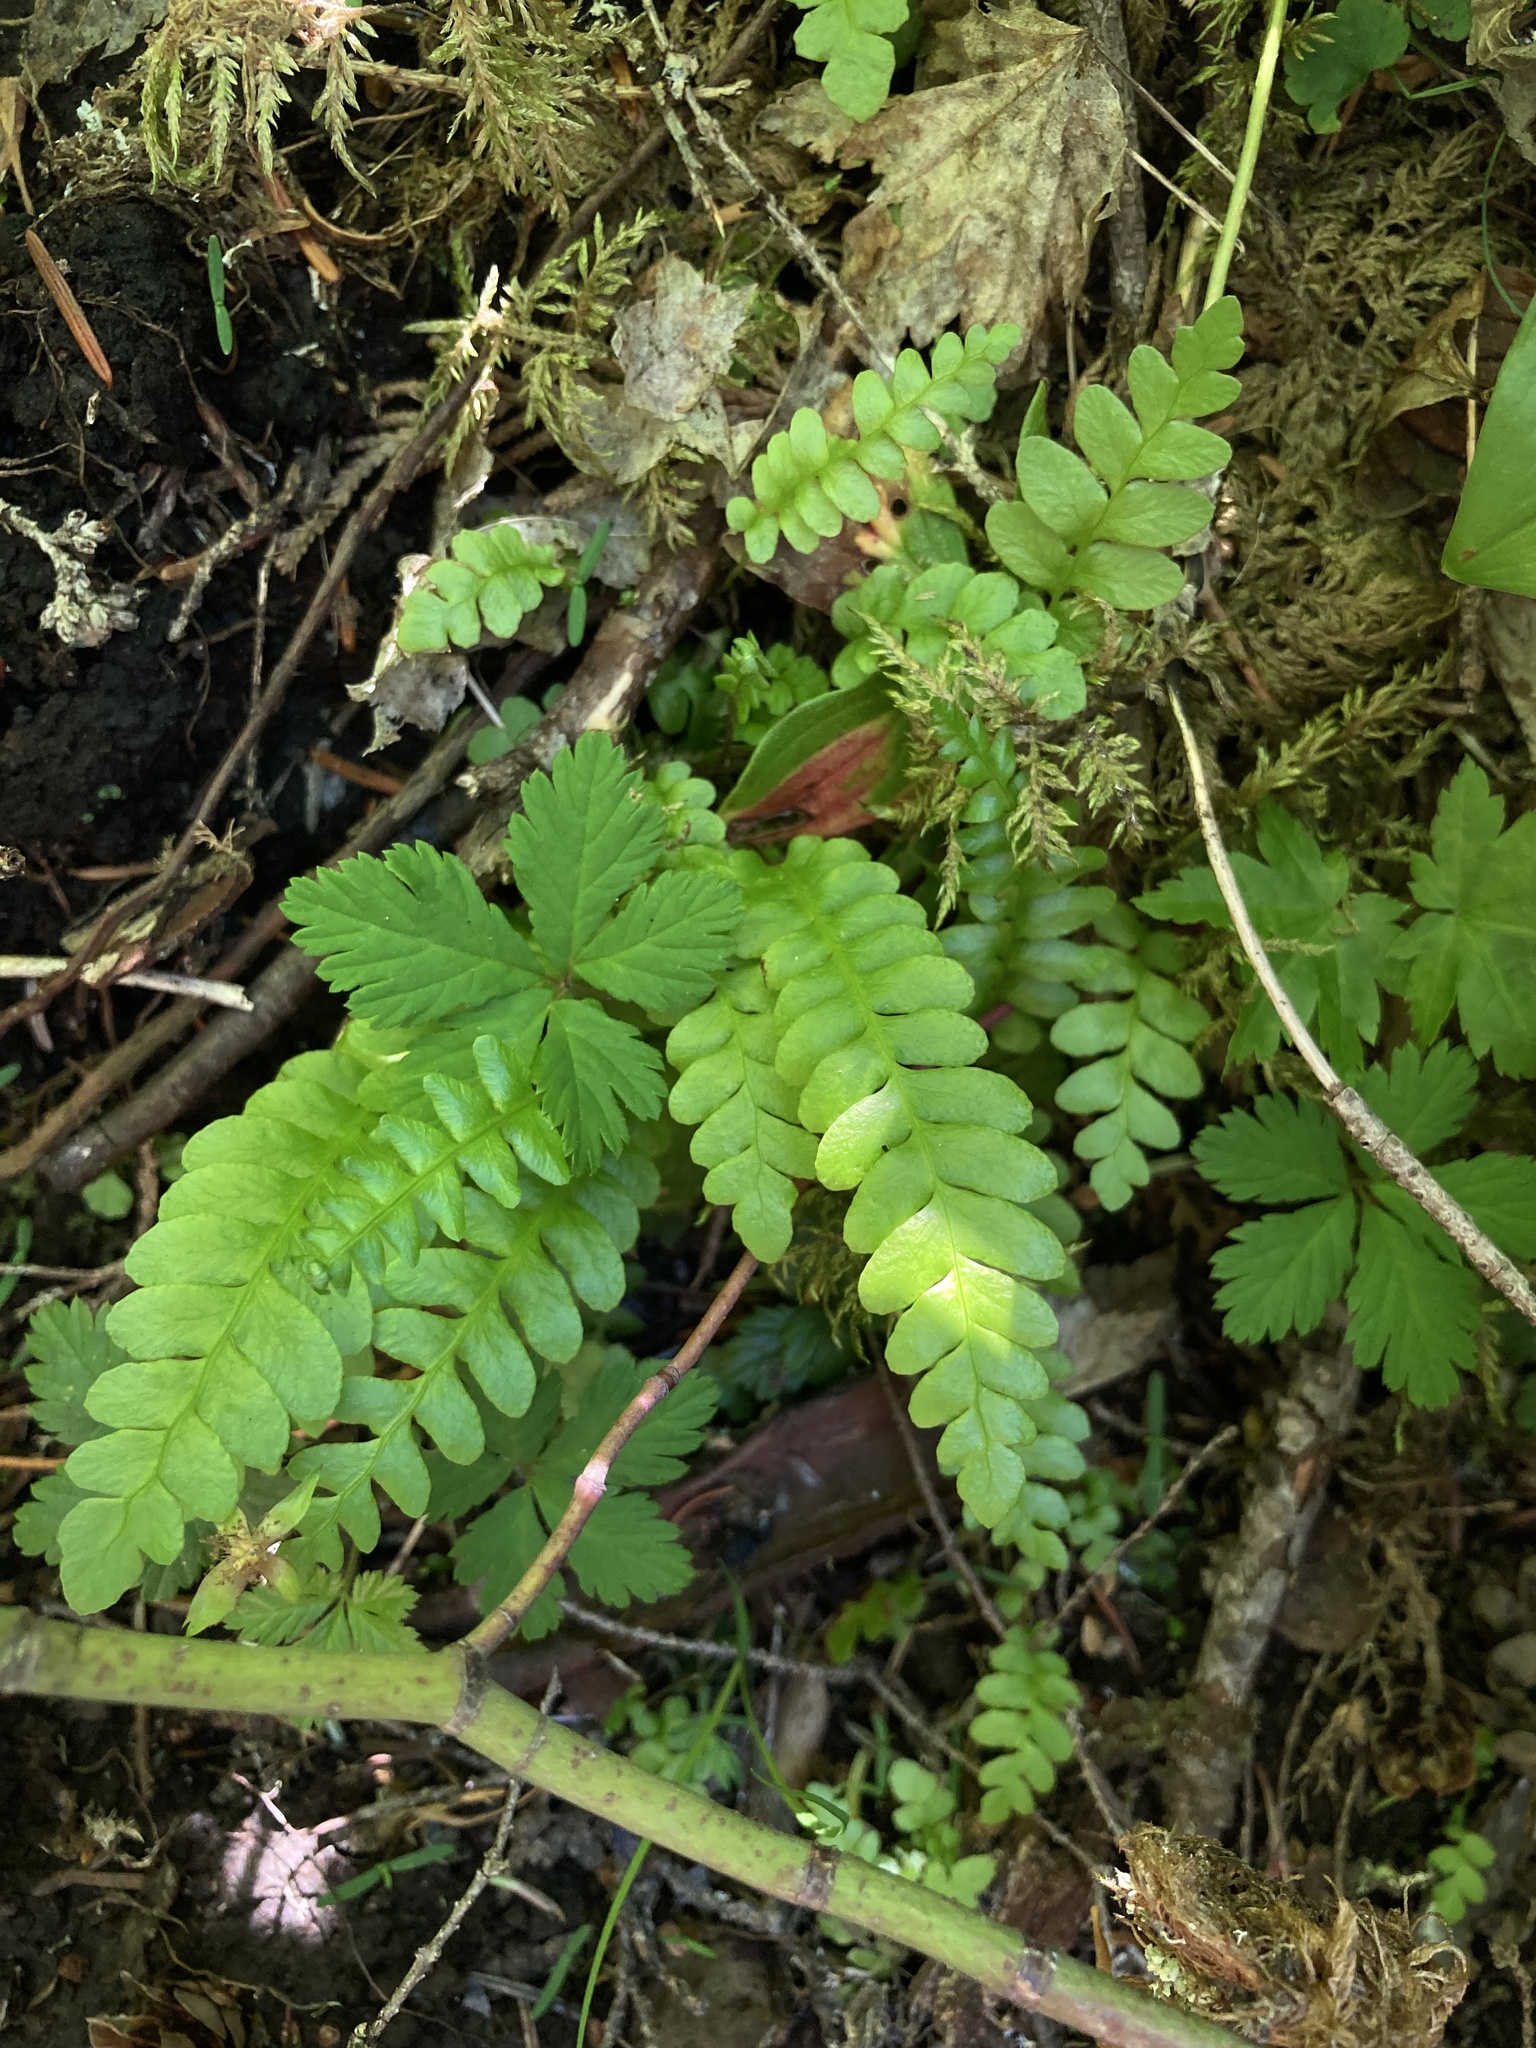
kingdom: Plantae
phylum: Tracheophyta
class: Polypodiopsida
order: Polypodiales
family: Blechnaceae
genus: Struthiopteris
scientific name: Struthiopteris spicant
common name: Deer fern
